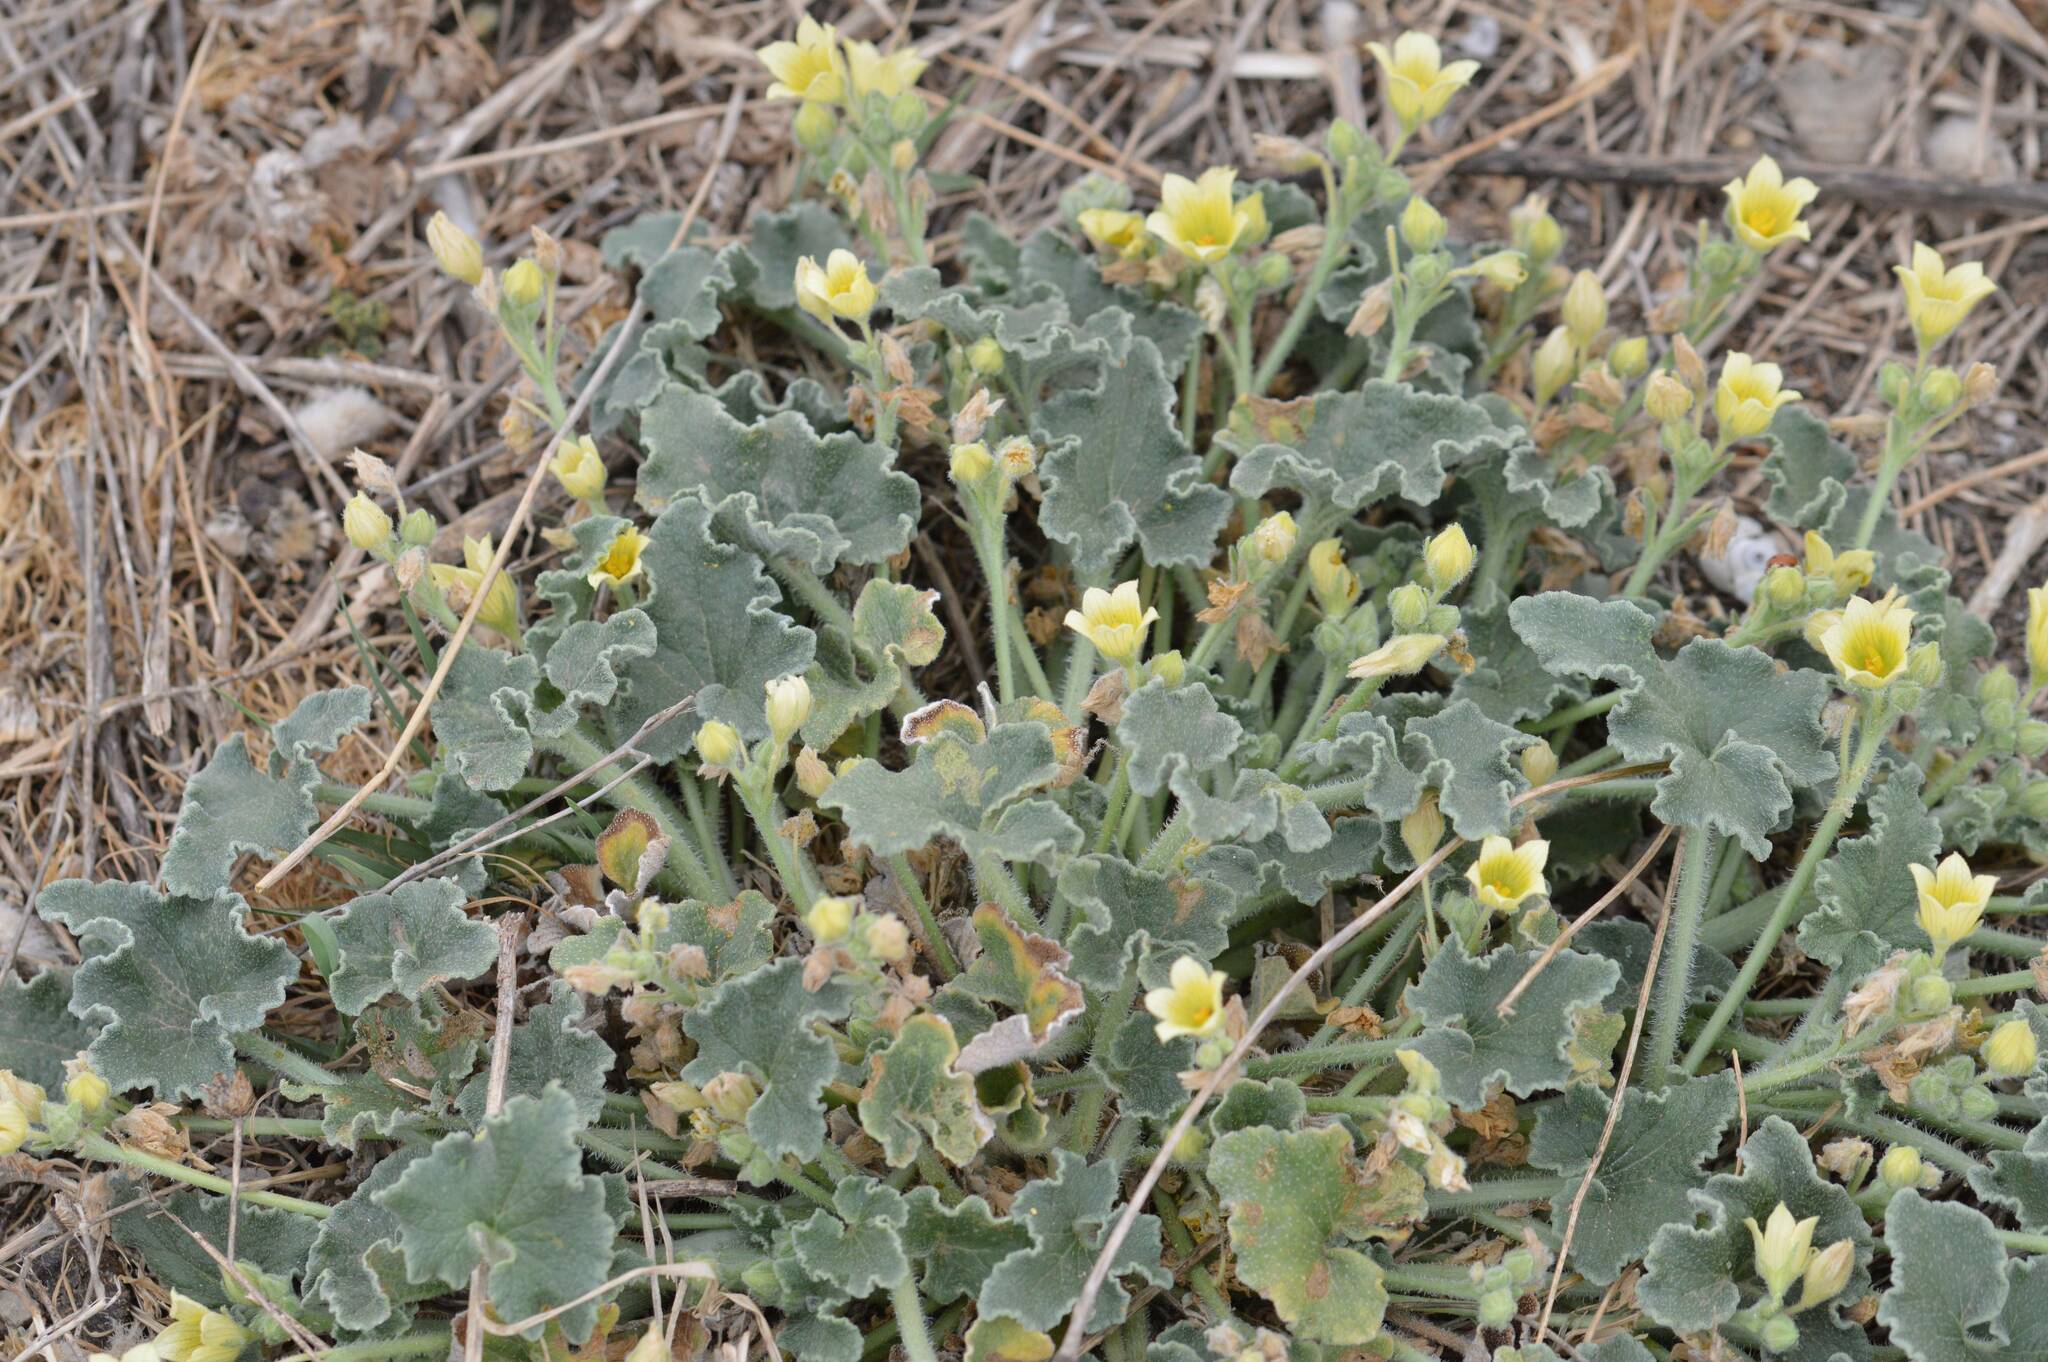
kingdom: Plantae
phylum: Tracheophyta
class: Magnoliopsida
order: Cucurbitales
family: Cucurbitaceae
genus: Ecballium
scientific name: Ecballium elaterium
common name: Squirting cucumber
